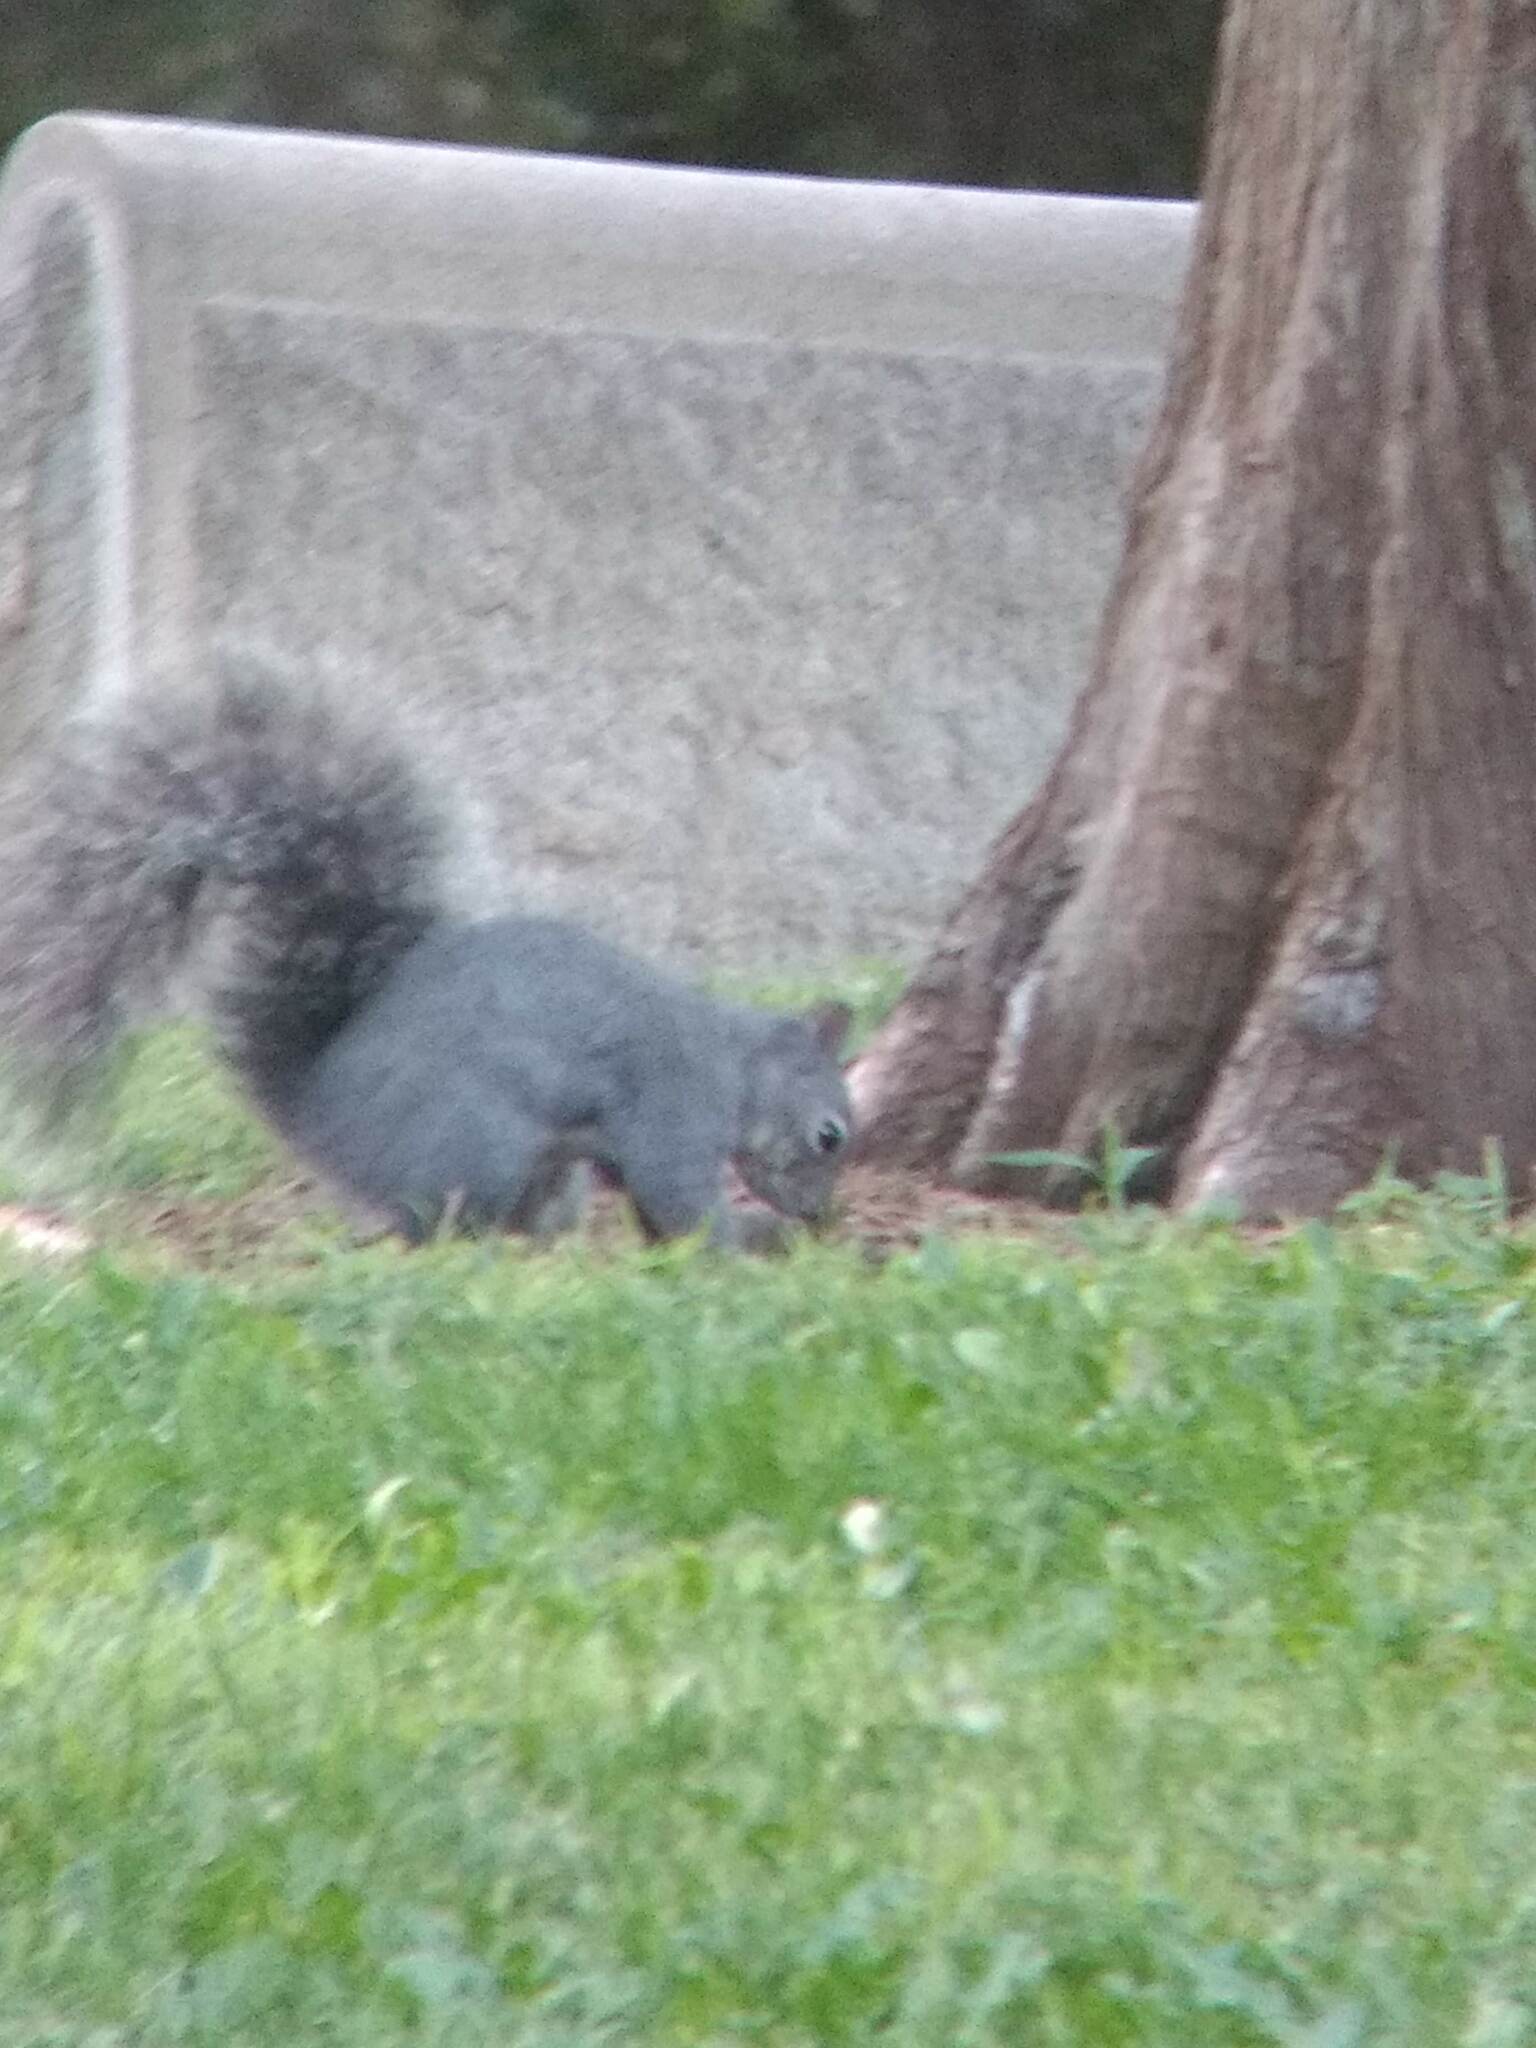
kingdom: Animalia
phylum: Chordata
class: Mammalia
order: Rodentia
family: Sciuridae
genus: Sciurus
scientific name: Sciurus griseus
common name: Western gray squirrel
